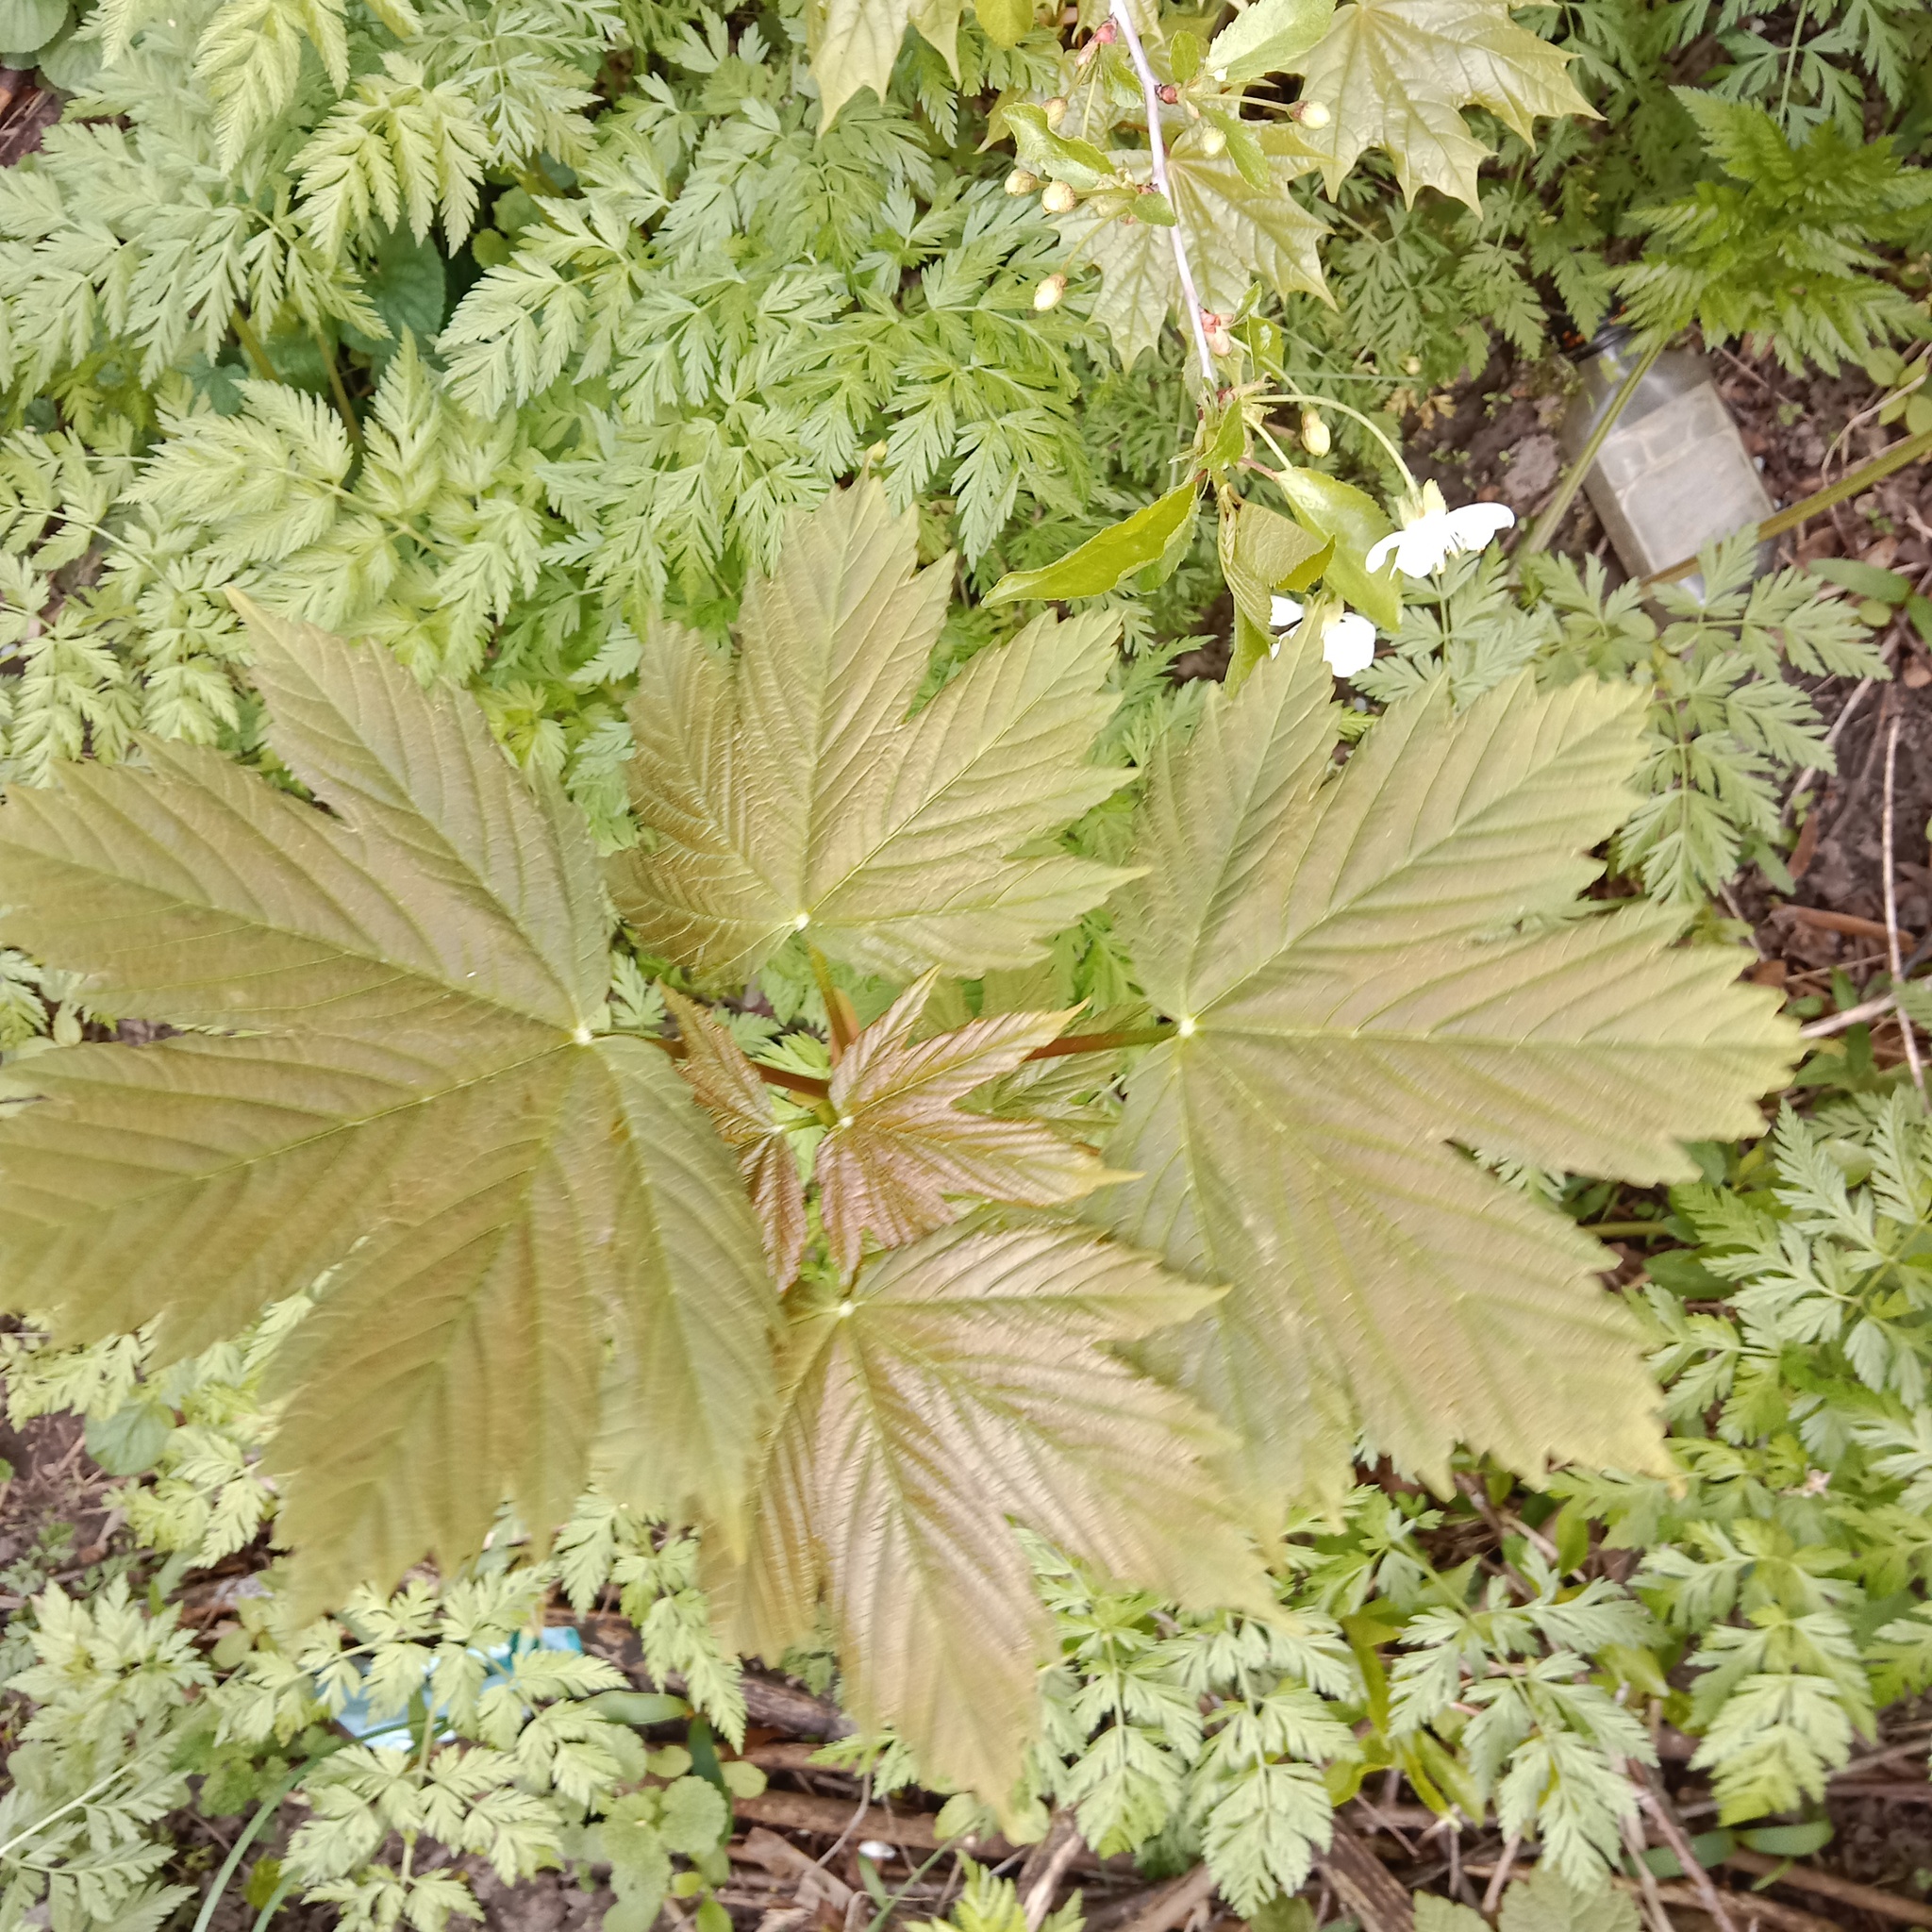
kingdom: Plantae
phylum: Tracheophyta
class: Magnoliopsida
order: Sapindales
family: Sapindaceae
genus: Acer
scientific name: Acer pseudoplatanus
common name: Sycamore
